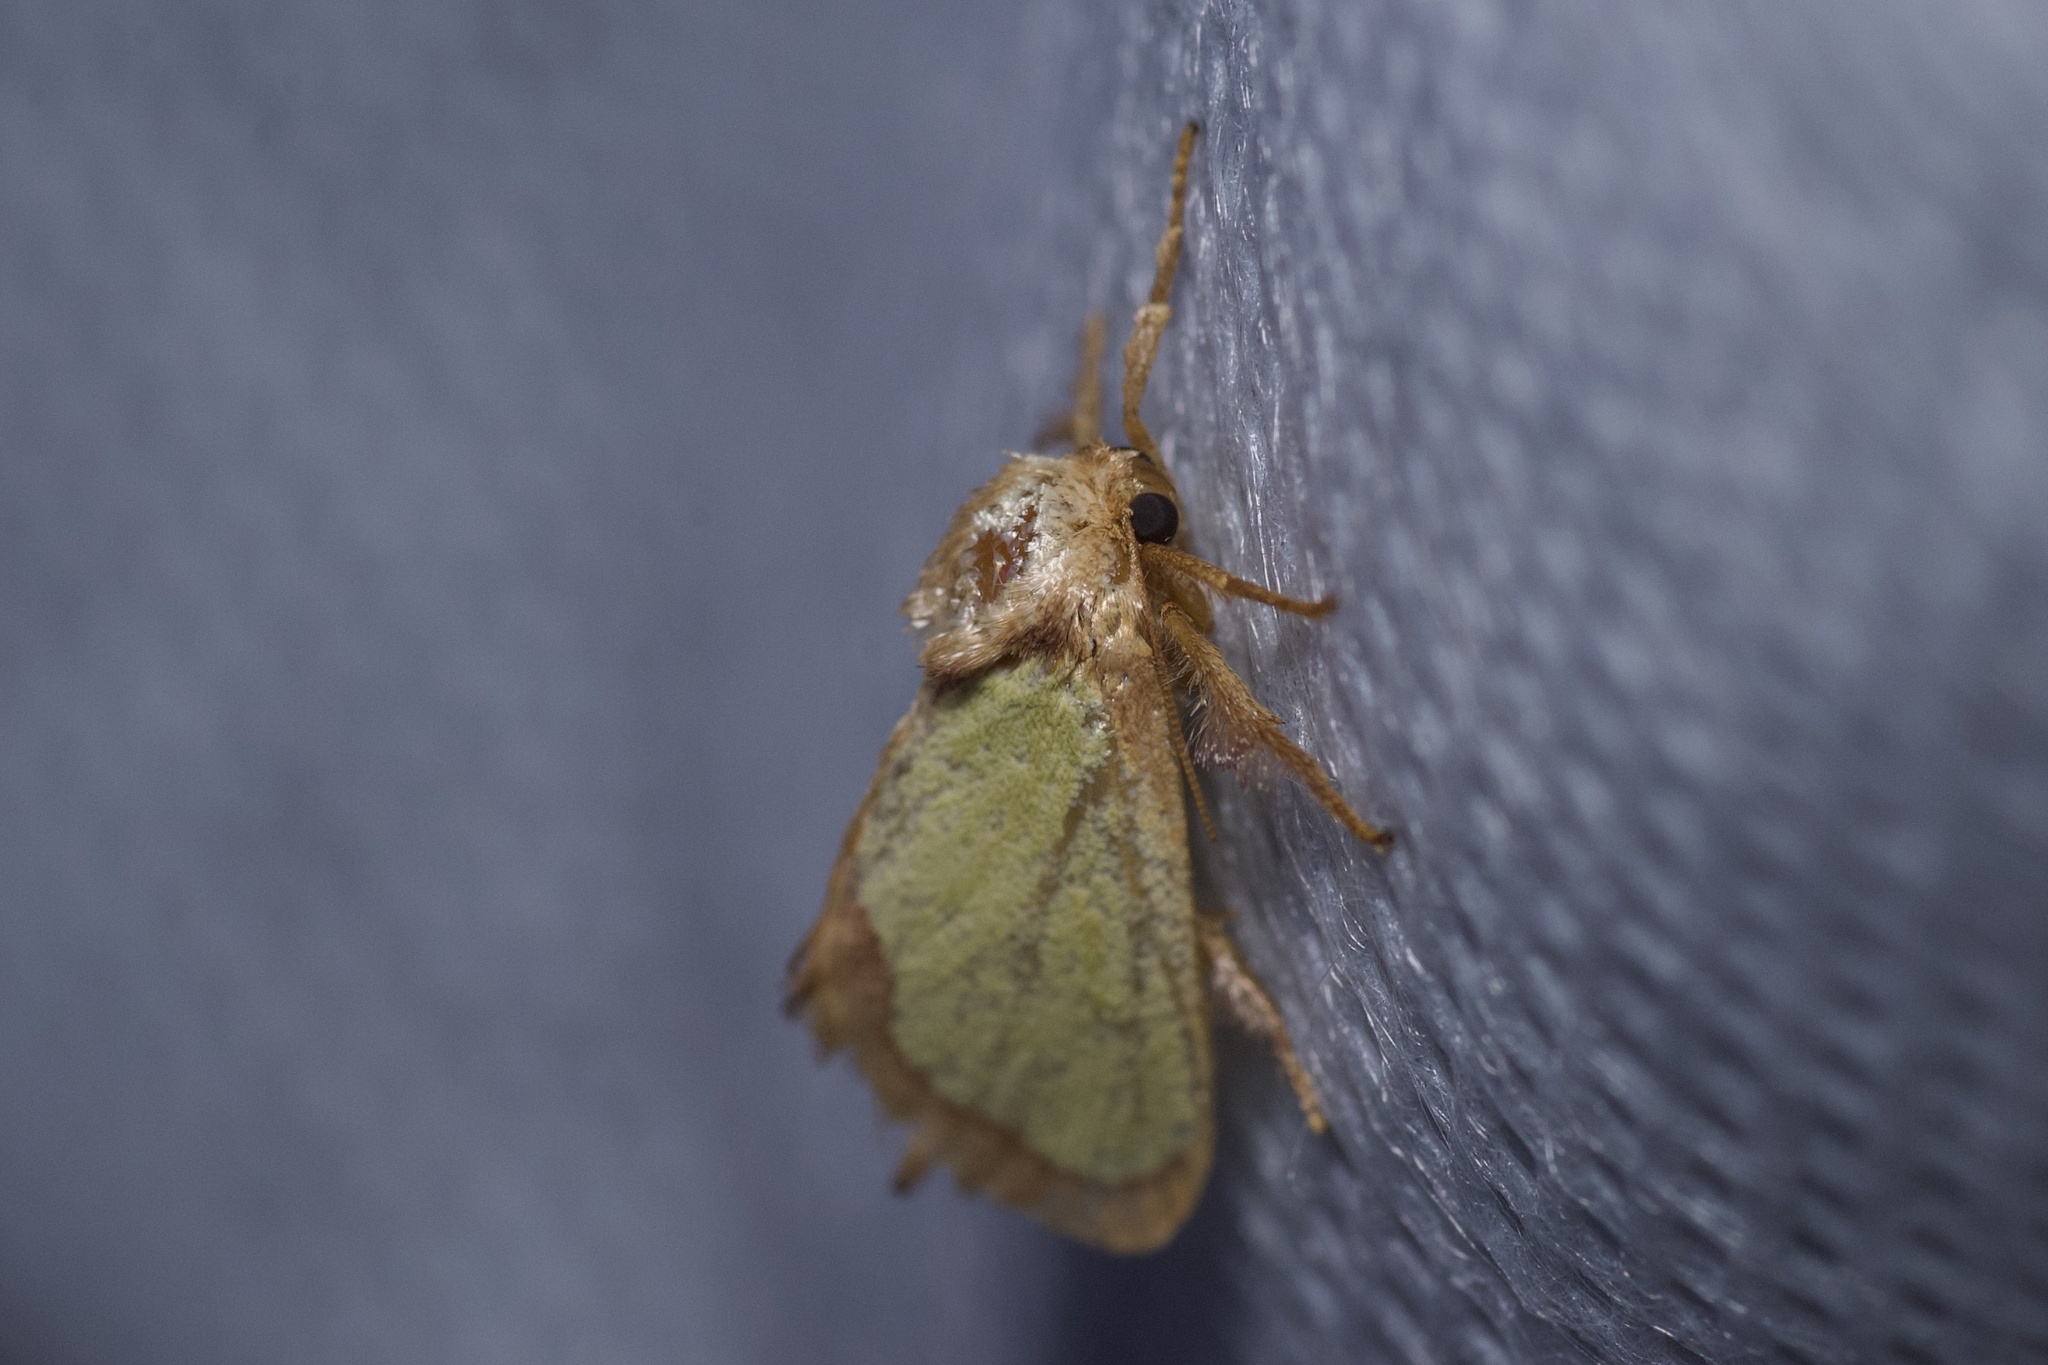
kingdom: Animalia
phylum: Arthropoda
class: Insecta
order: Lepidoptera
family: Limacodidae
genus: Euclea
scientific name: Euclea incisa
